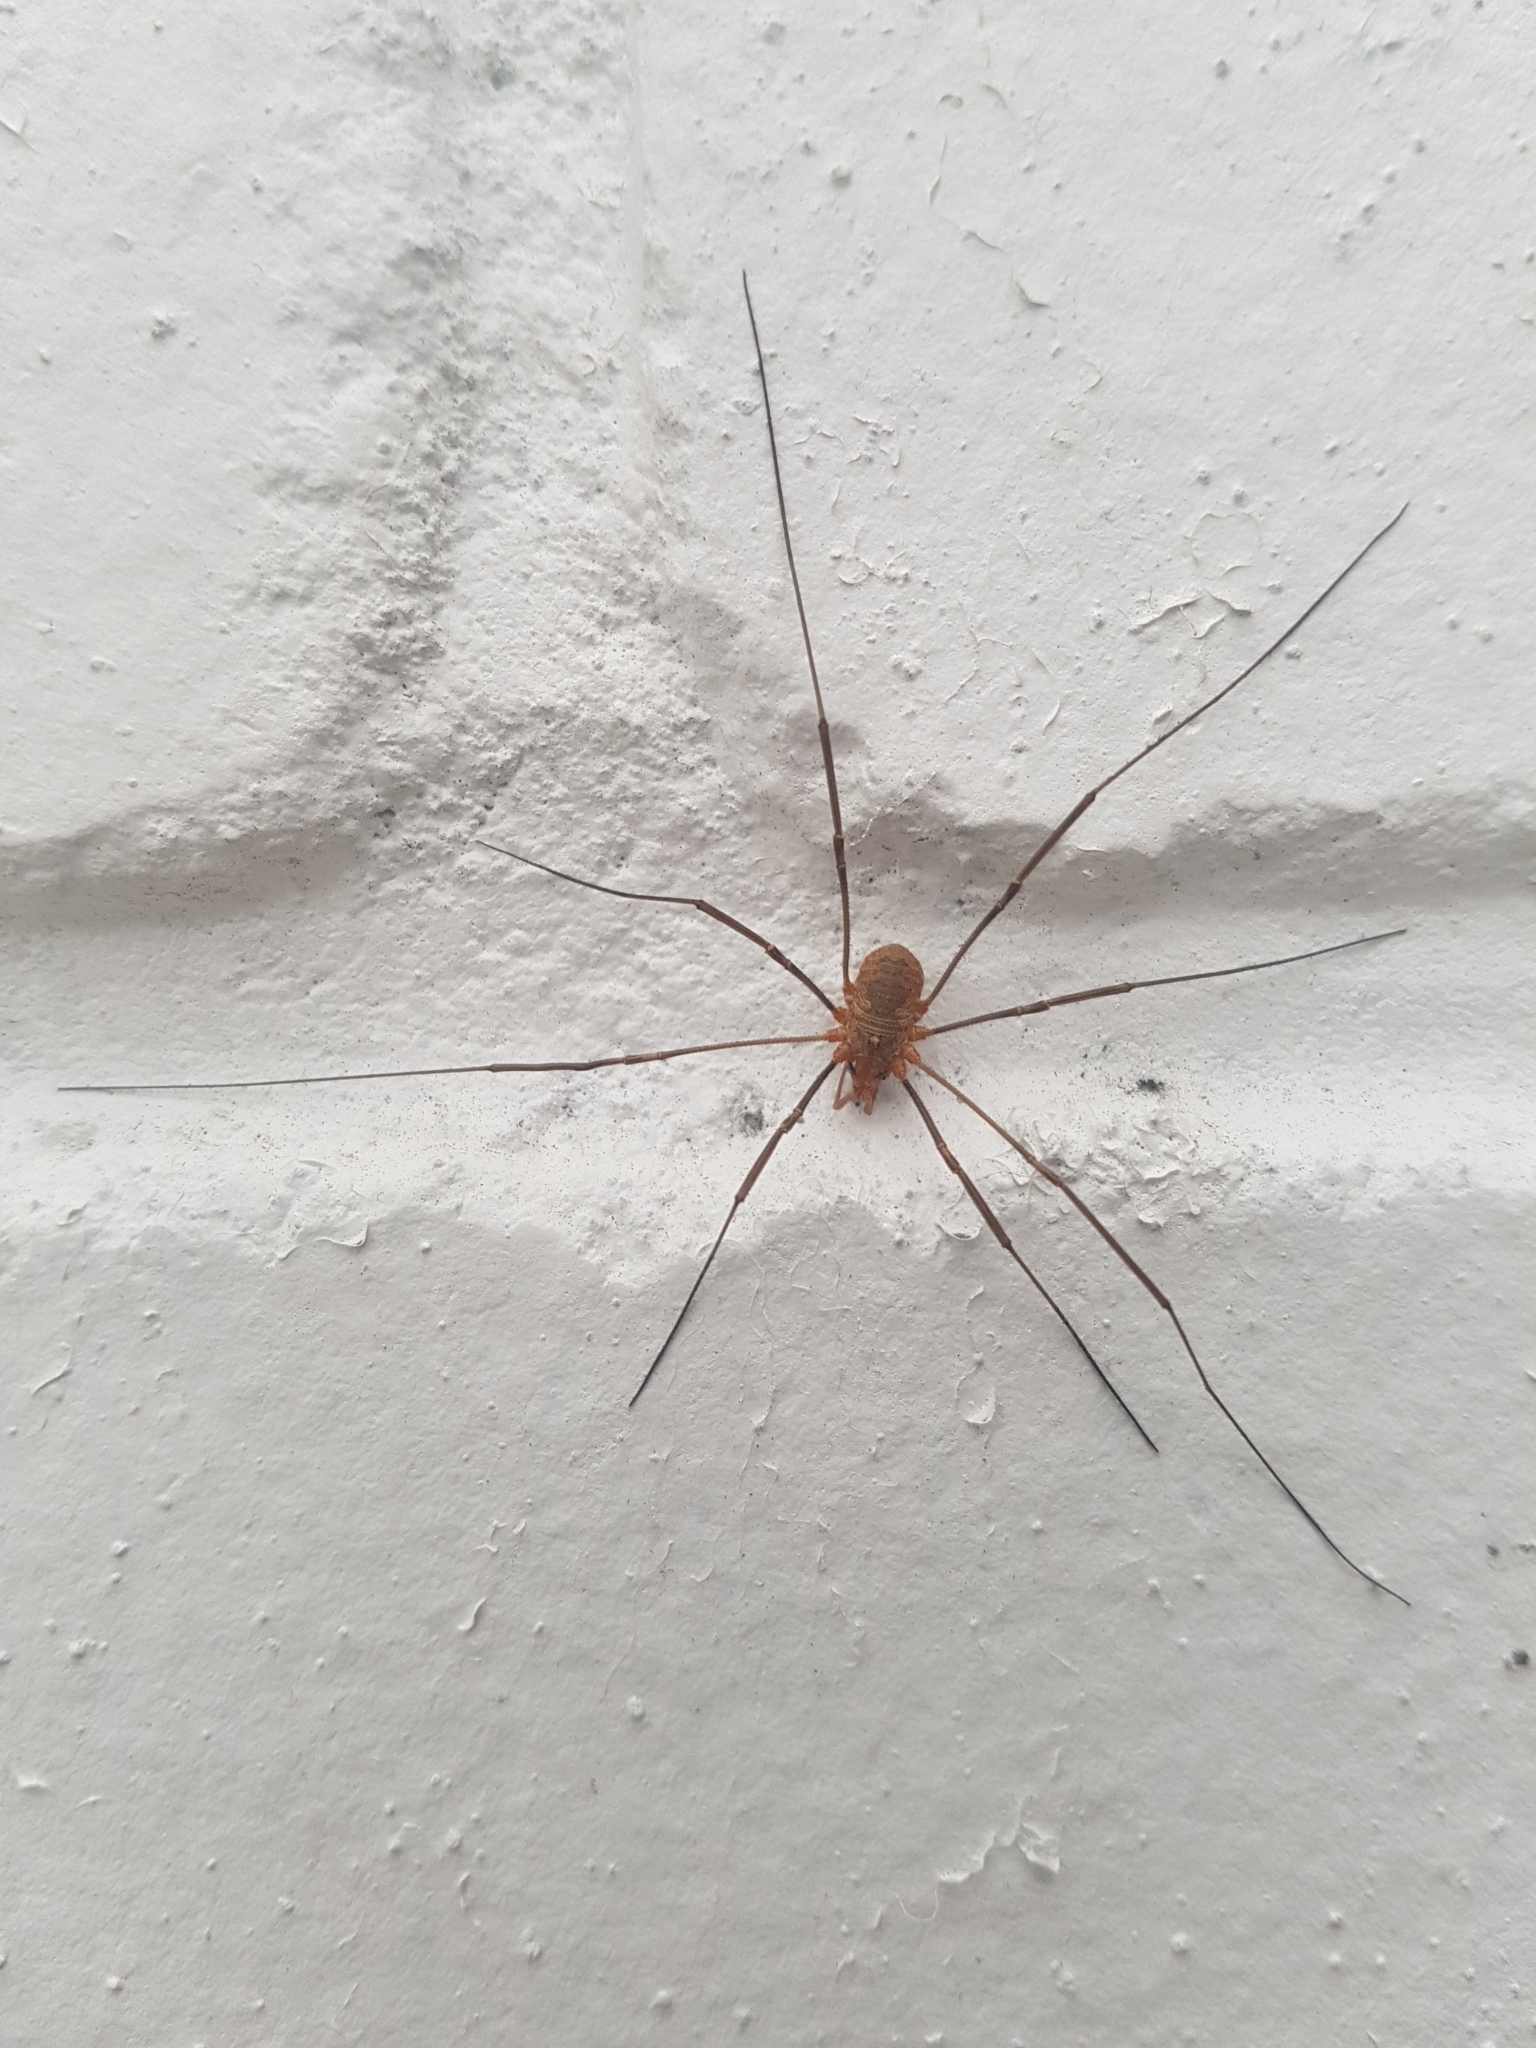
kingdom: Animalia
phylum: Arthropoda
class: Arachnida
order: Opiliones
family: Phalangiidae
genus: Phalangium
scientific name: Phalangium opilio
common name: Daddy longleg
